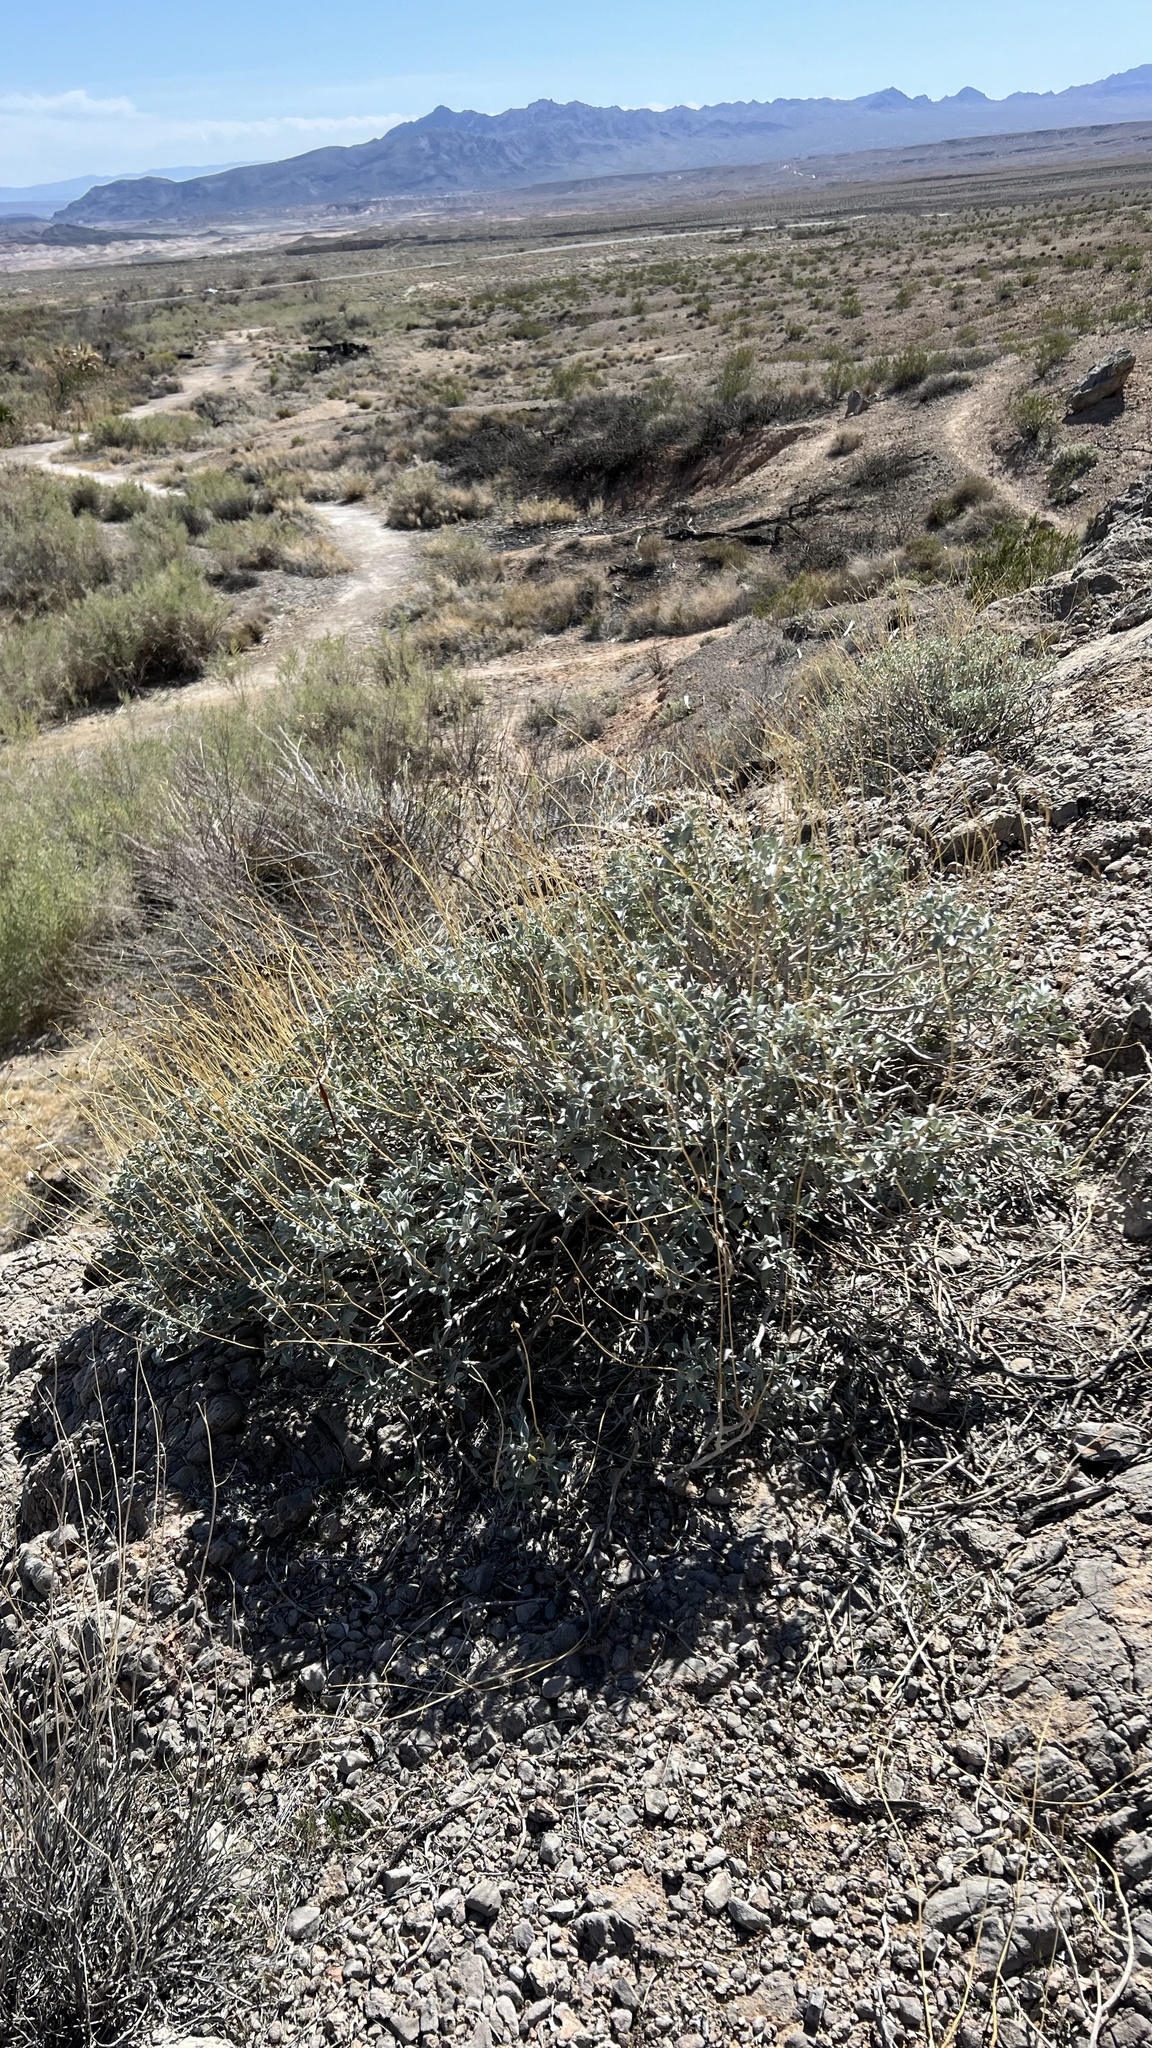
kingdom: Plantae
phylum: Tracheophyta
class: Magnoliopsida
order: Asterales
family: Asteraceae
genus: Encelia
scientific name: Encelia farinosa
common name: Brittlebush
